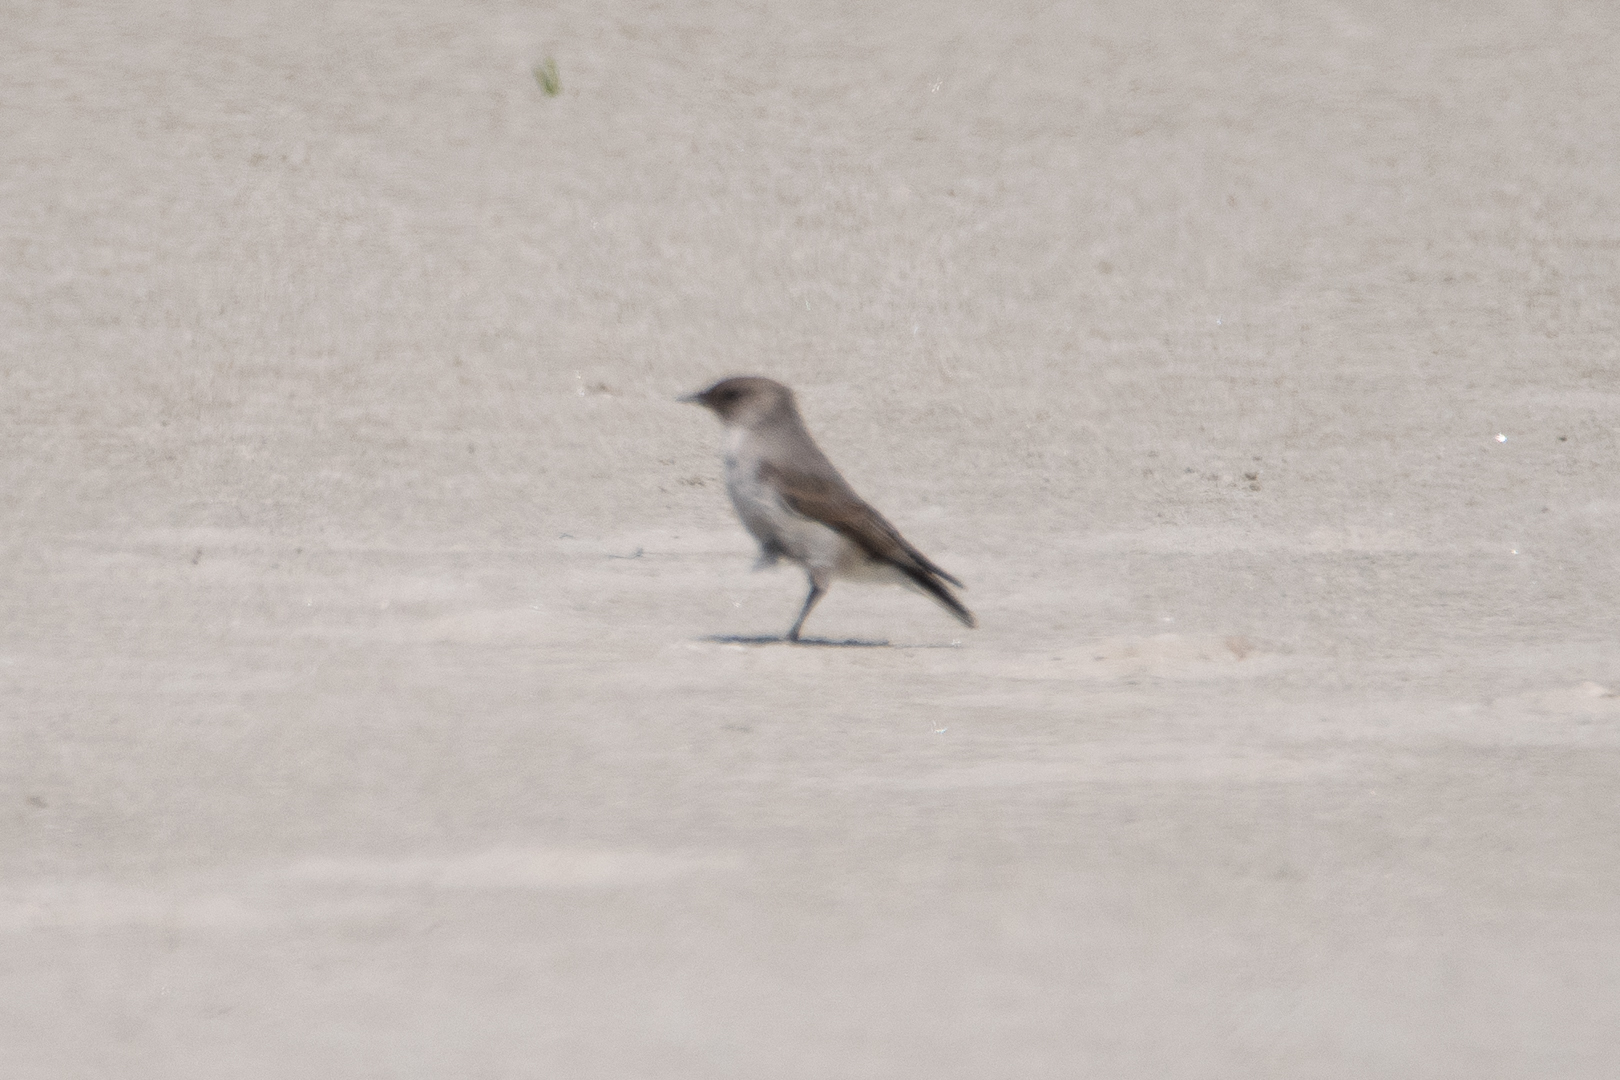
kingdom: Animalia
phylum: Chordata
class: Aves
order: Passeriformes
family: Tyrannidae
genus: Muscisaxicola
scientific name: Muscisaxicola maclovianus
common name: Dark-faced ground tyrant
